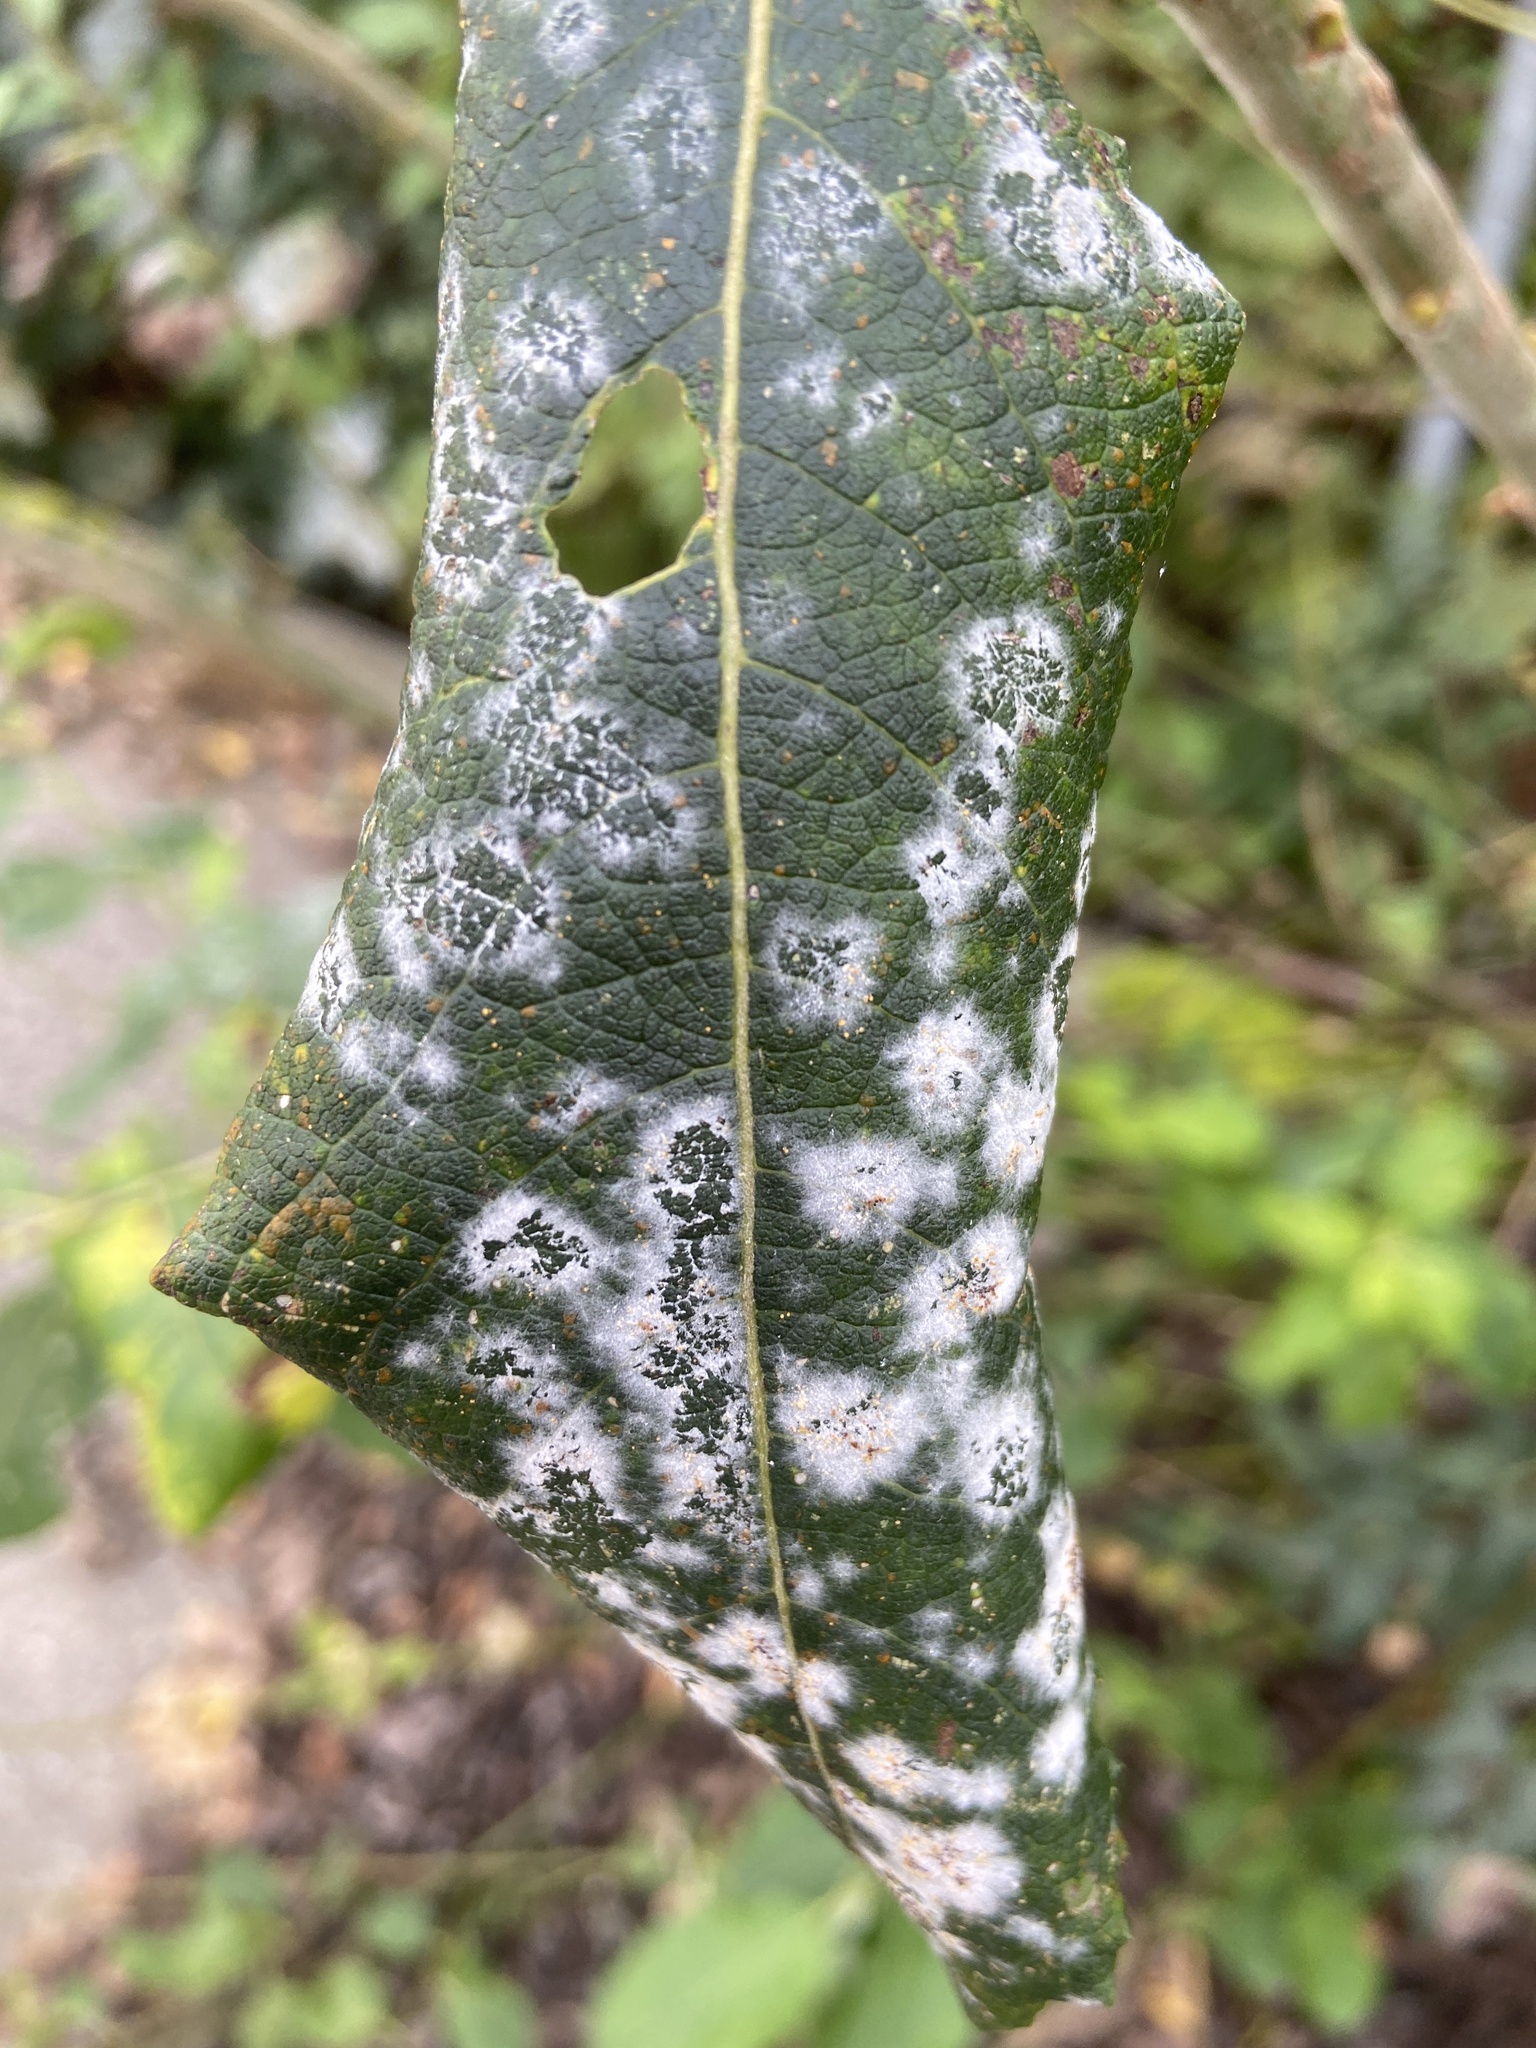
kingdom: Fungi
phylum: Ascomycota
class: Leotiomycetes
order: Helotiales
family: Erysiphaceae
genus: Erysiphe
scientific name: Erysiphe capreae
